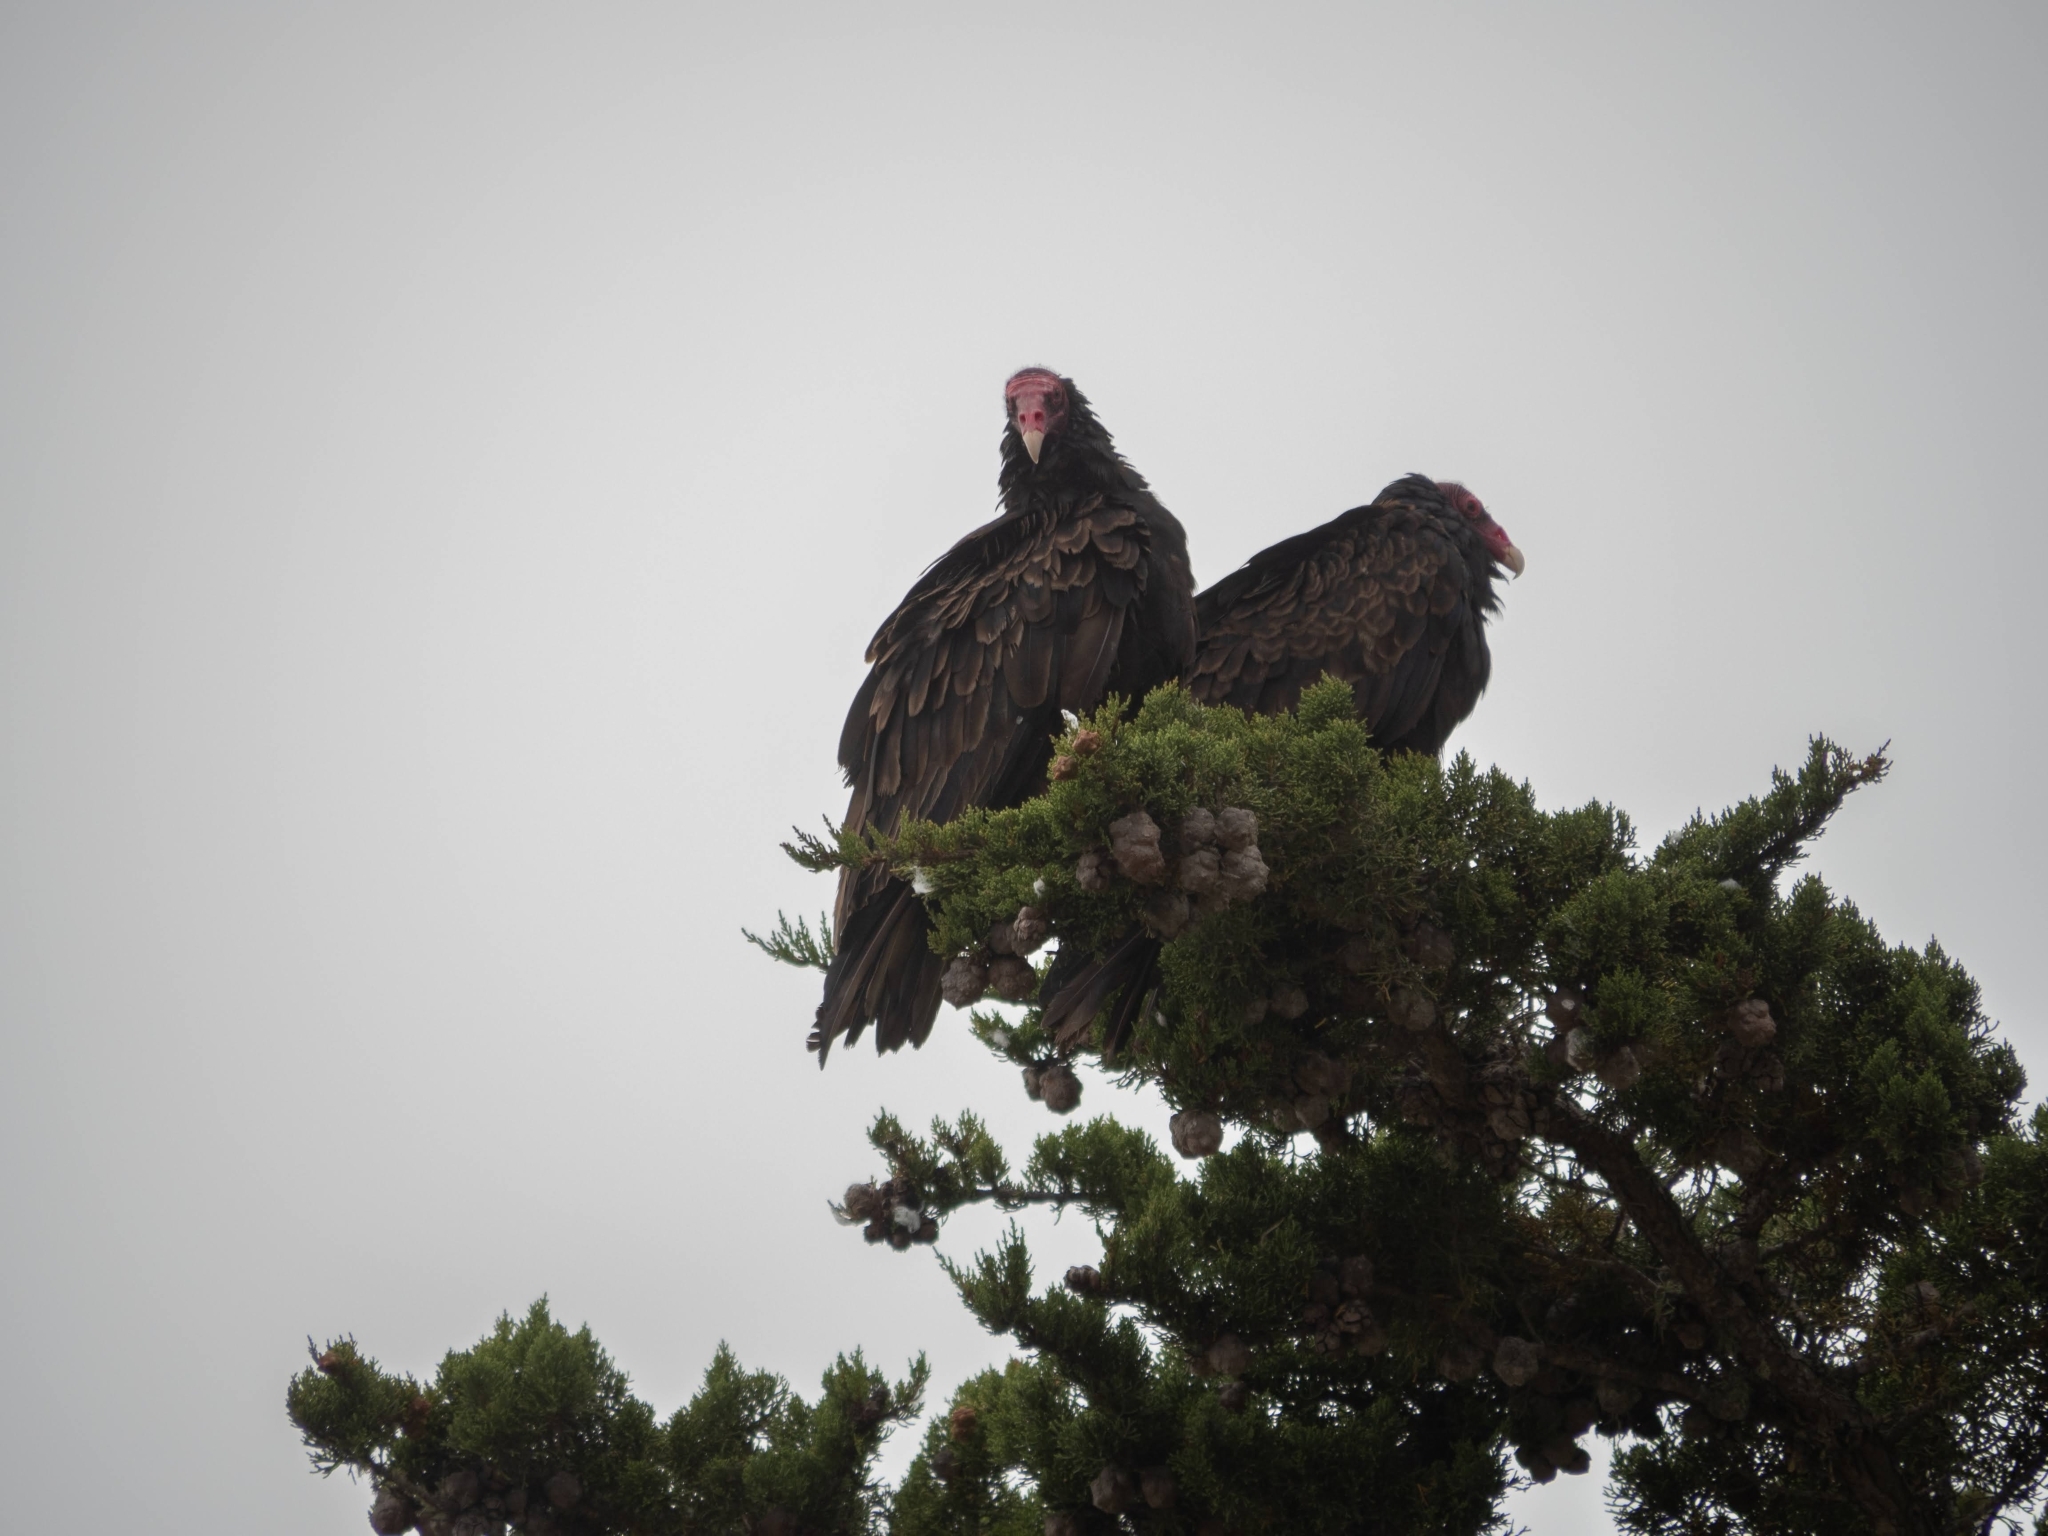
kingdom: Animalia
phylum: Chordata
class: Aves
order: Accipitriformes
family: Cathartidae
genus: Cathartes
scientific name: Cathartes aura
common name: Turkey vulture
